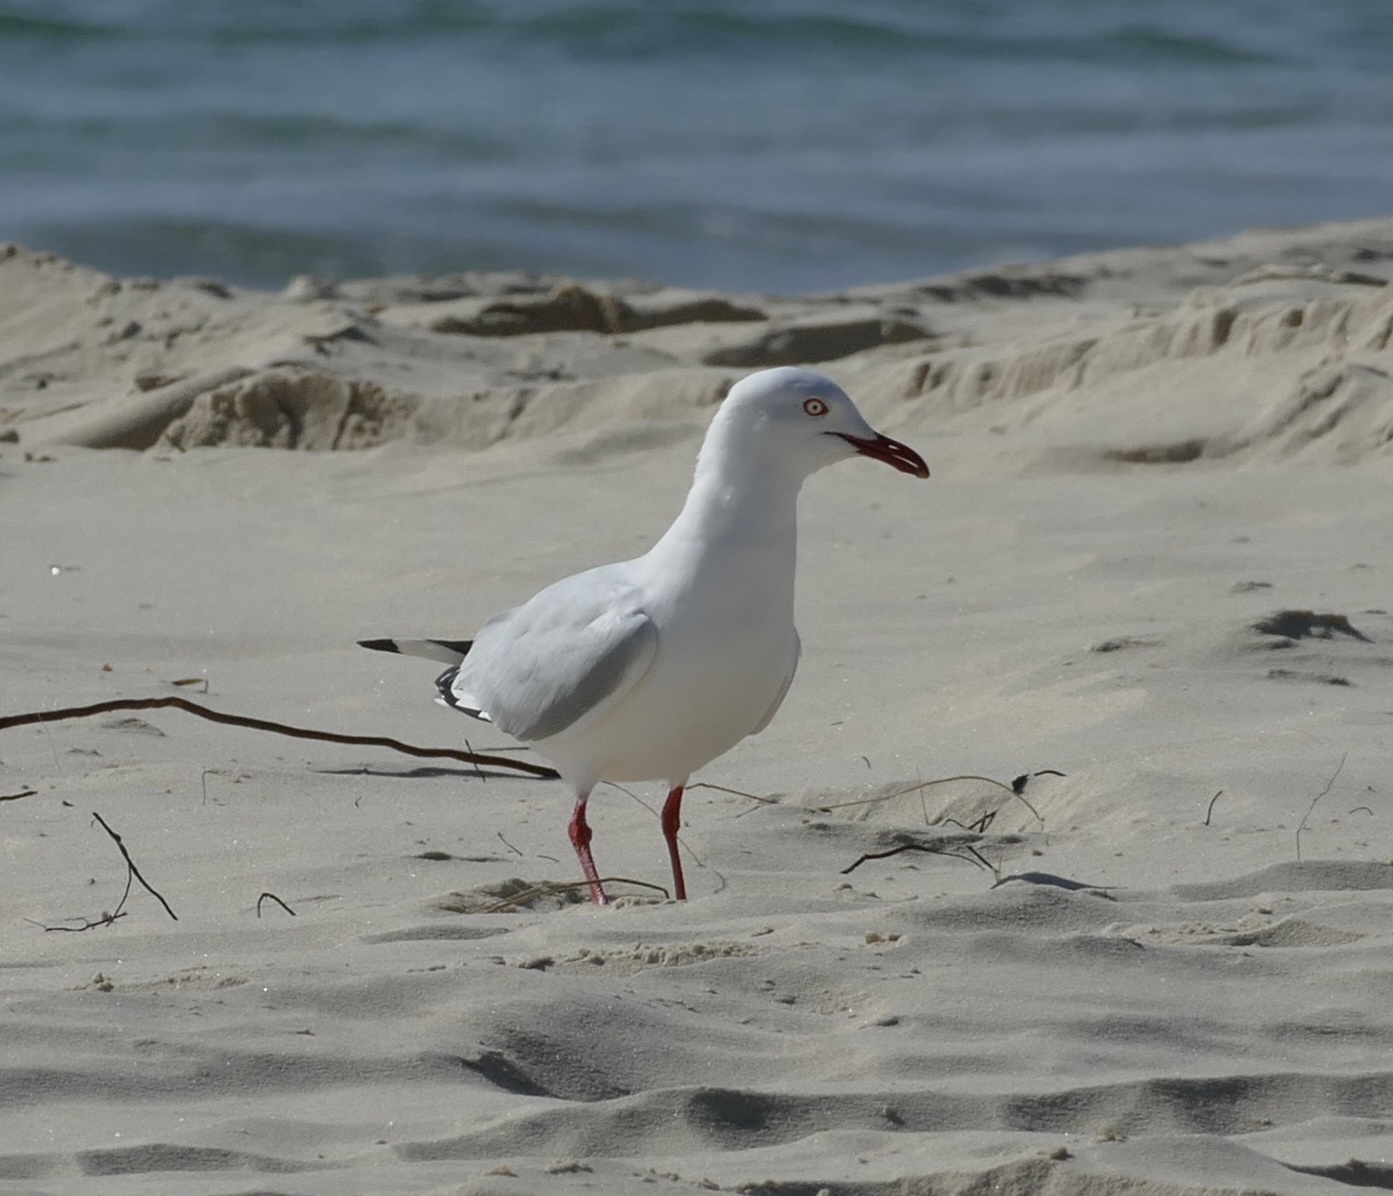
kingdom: Animalia
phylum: Chordata
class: Aves
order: Charadriiformes
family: Laridae
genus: Chroicocephalus
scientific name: Chroicocephalus novaehollandiae
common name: Silver gull
